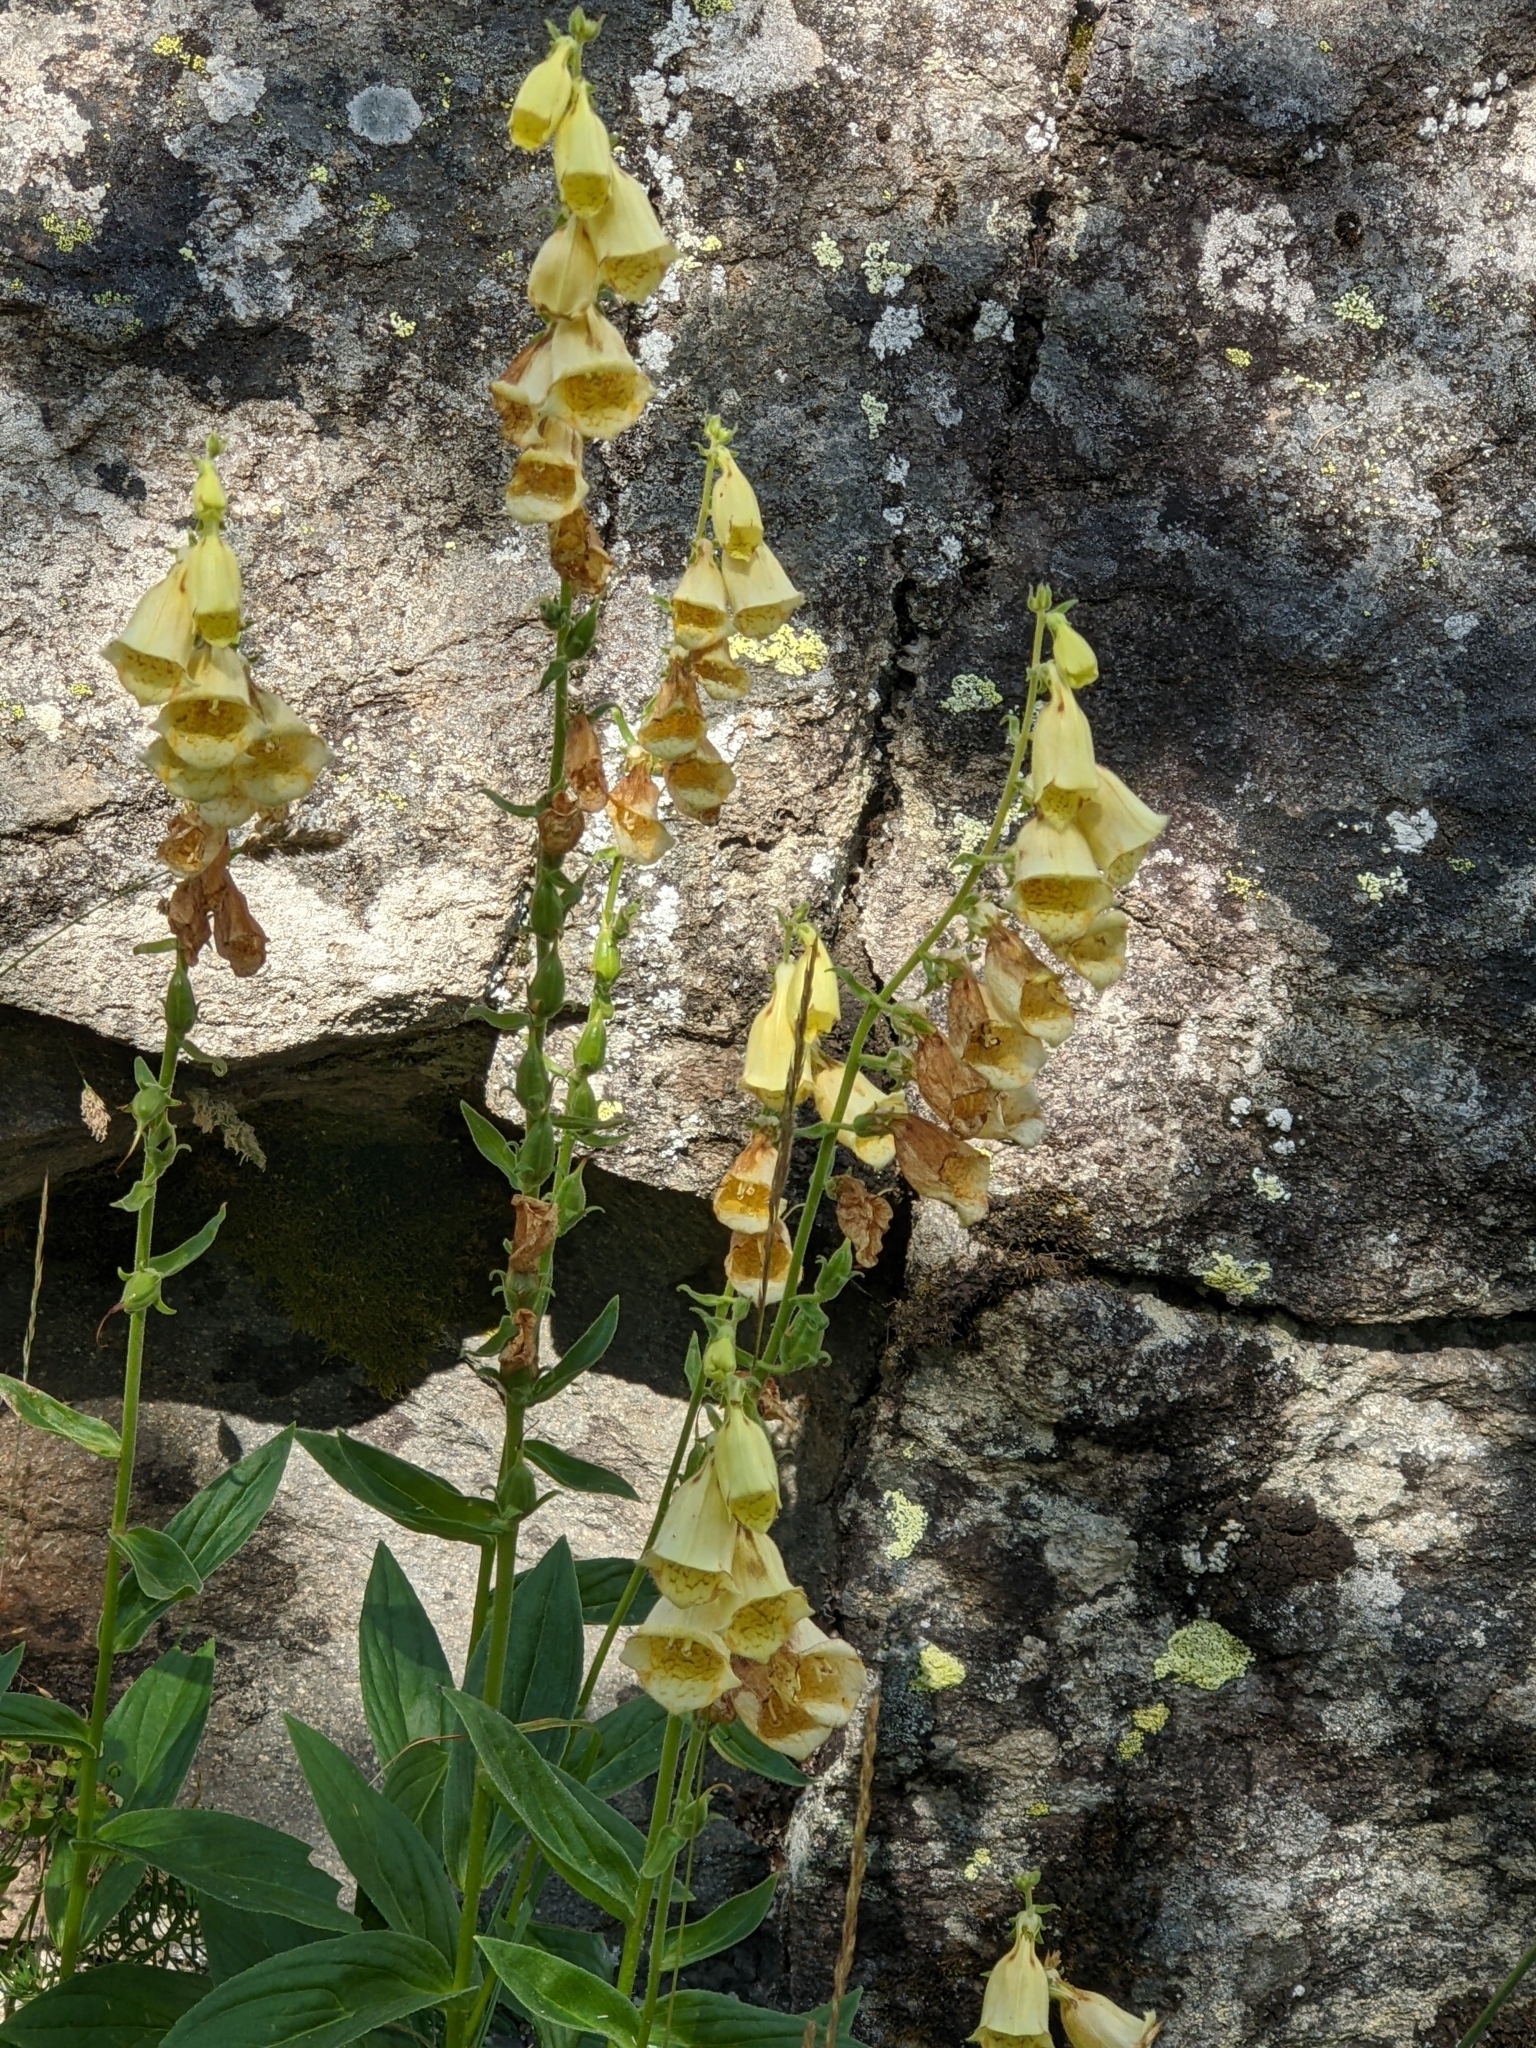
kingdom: Plantae
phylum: Tracheophyta
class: Magnoliopsida
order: Lamiales
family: Plantaginaceae
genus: Digitalis
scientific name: Digitalis grandiflora
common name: Yellow foxglove
